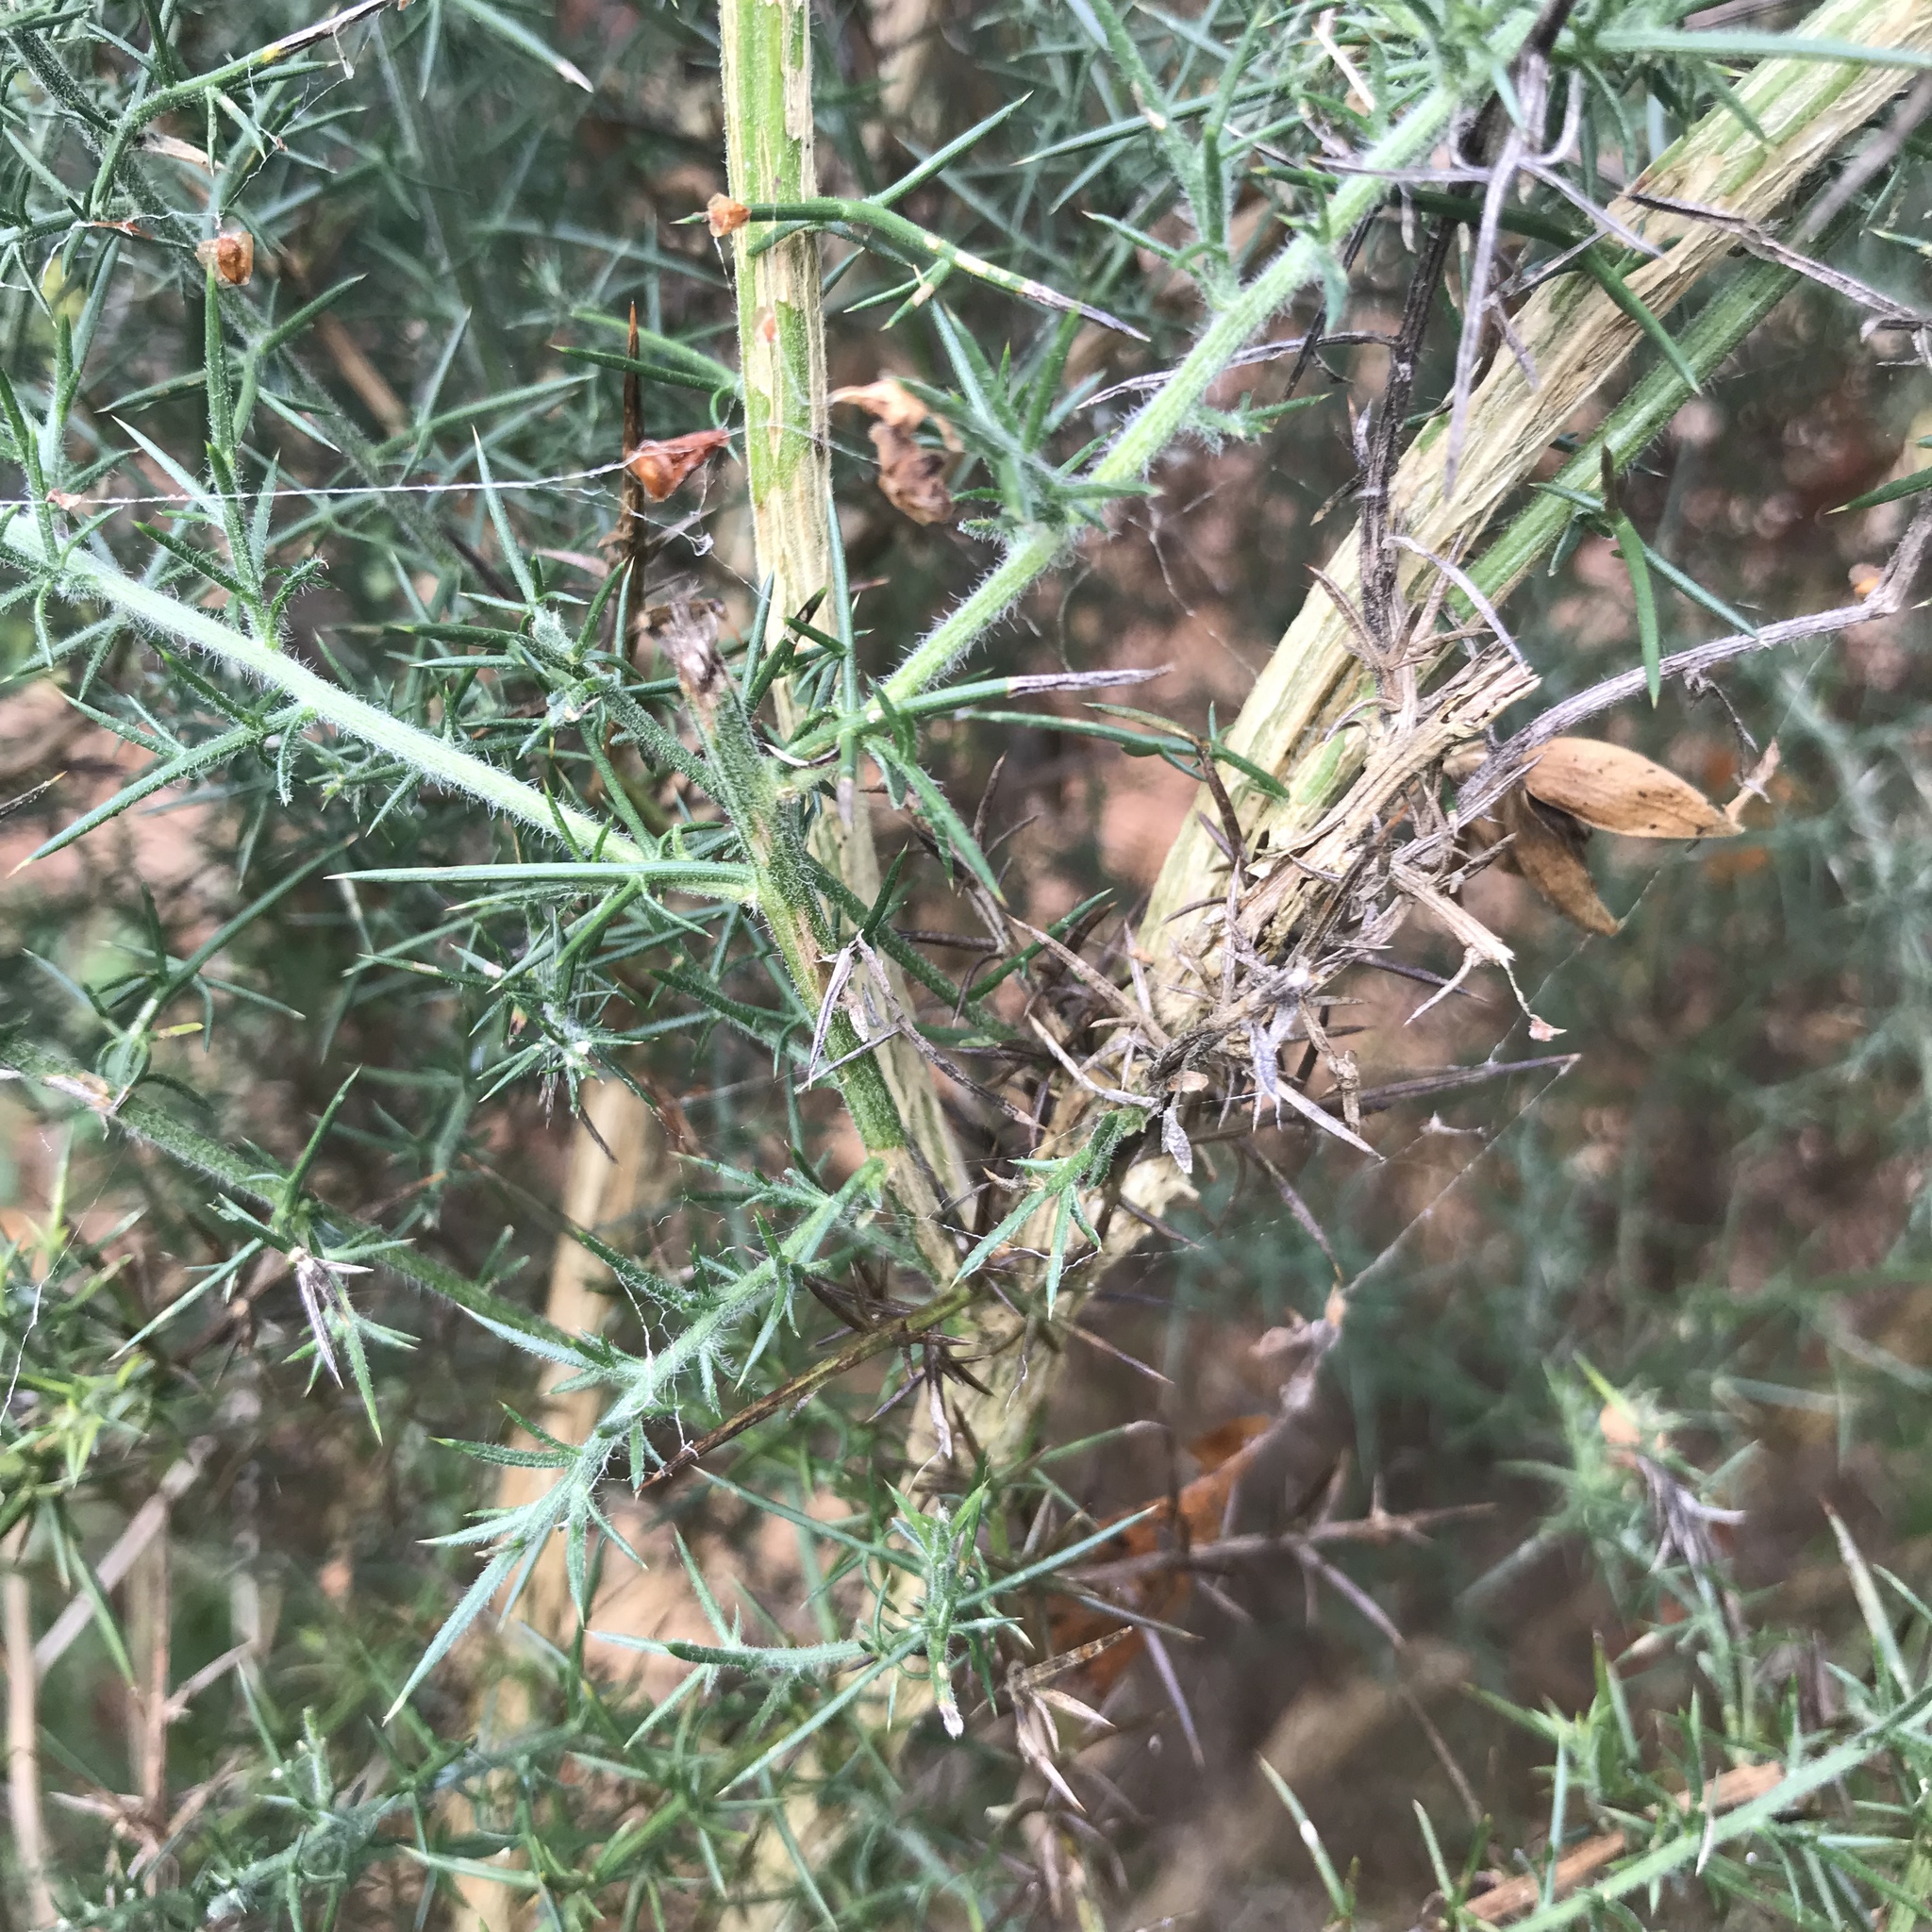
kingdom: Plantae
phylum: Tracheophyta
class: Magnoliopsida
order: Fabales
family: Fabaceae
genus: Ulex
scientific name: Ulex europaeus
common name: Common gorse
